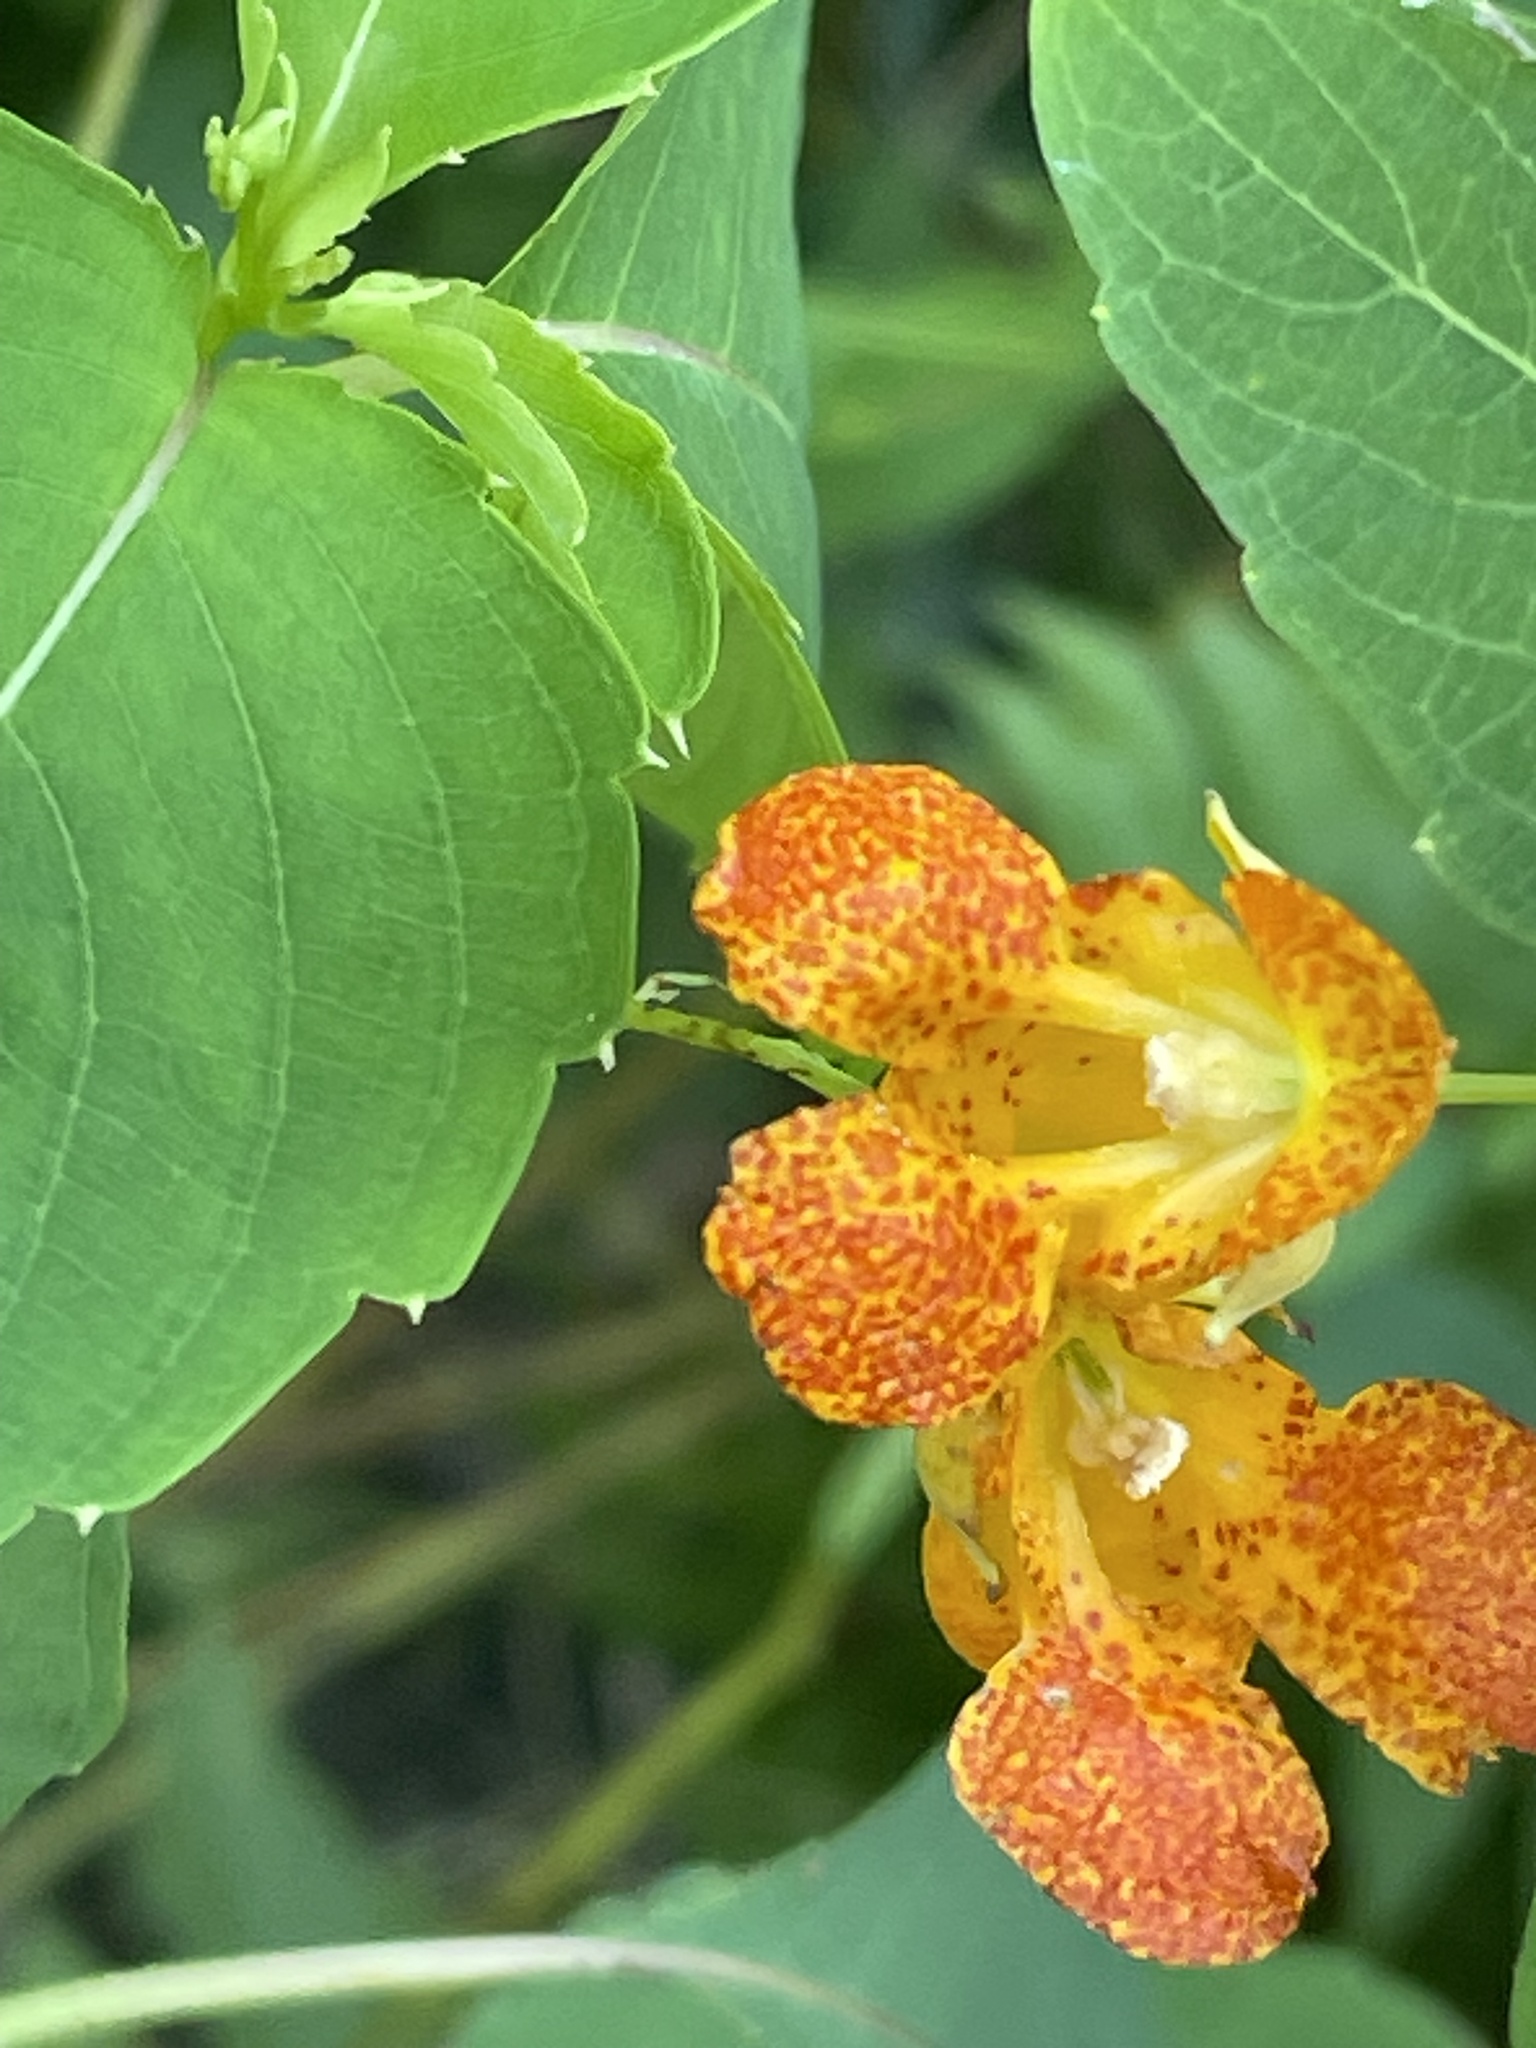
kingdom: Plantae
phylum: Tracheophyta
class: Magnoliopsida
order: Ericales
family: Balsaminaceae
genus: Impatiens
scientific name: Impatiens capensis
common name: Orange balsam
